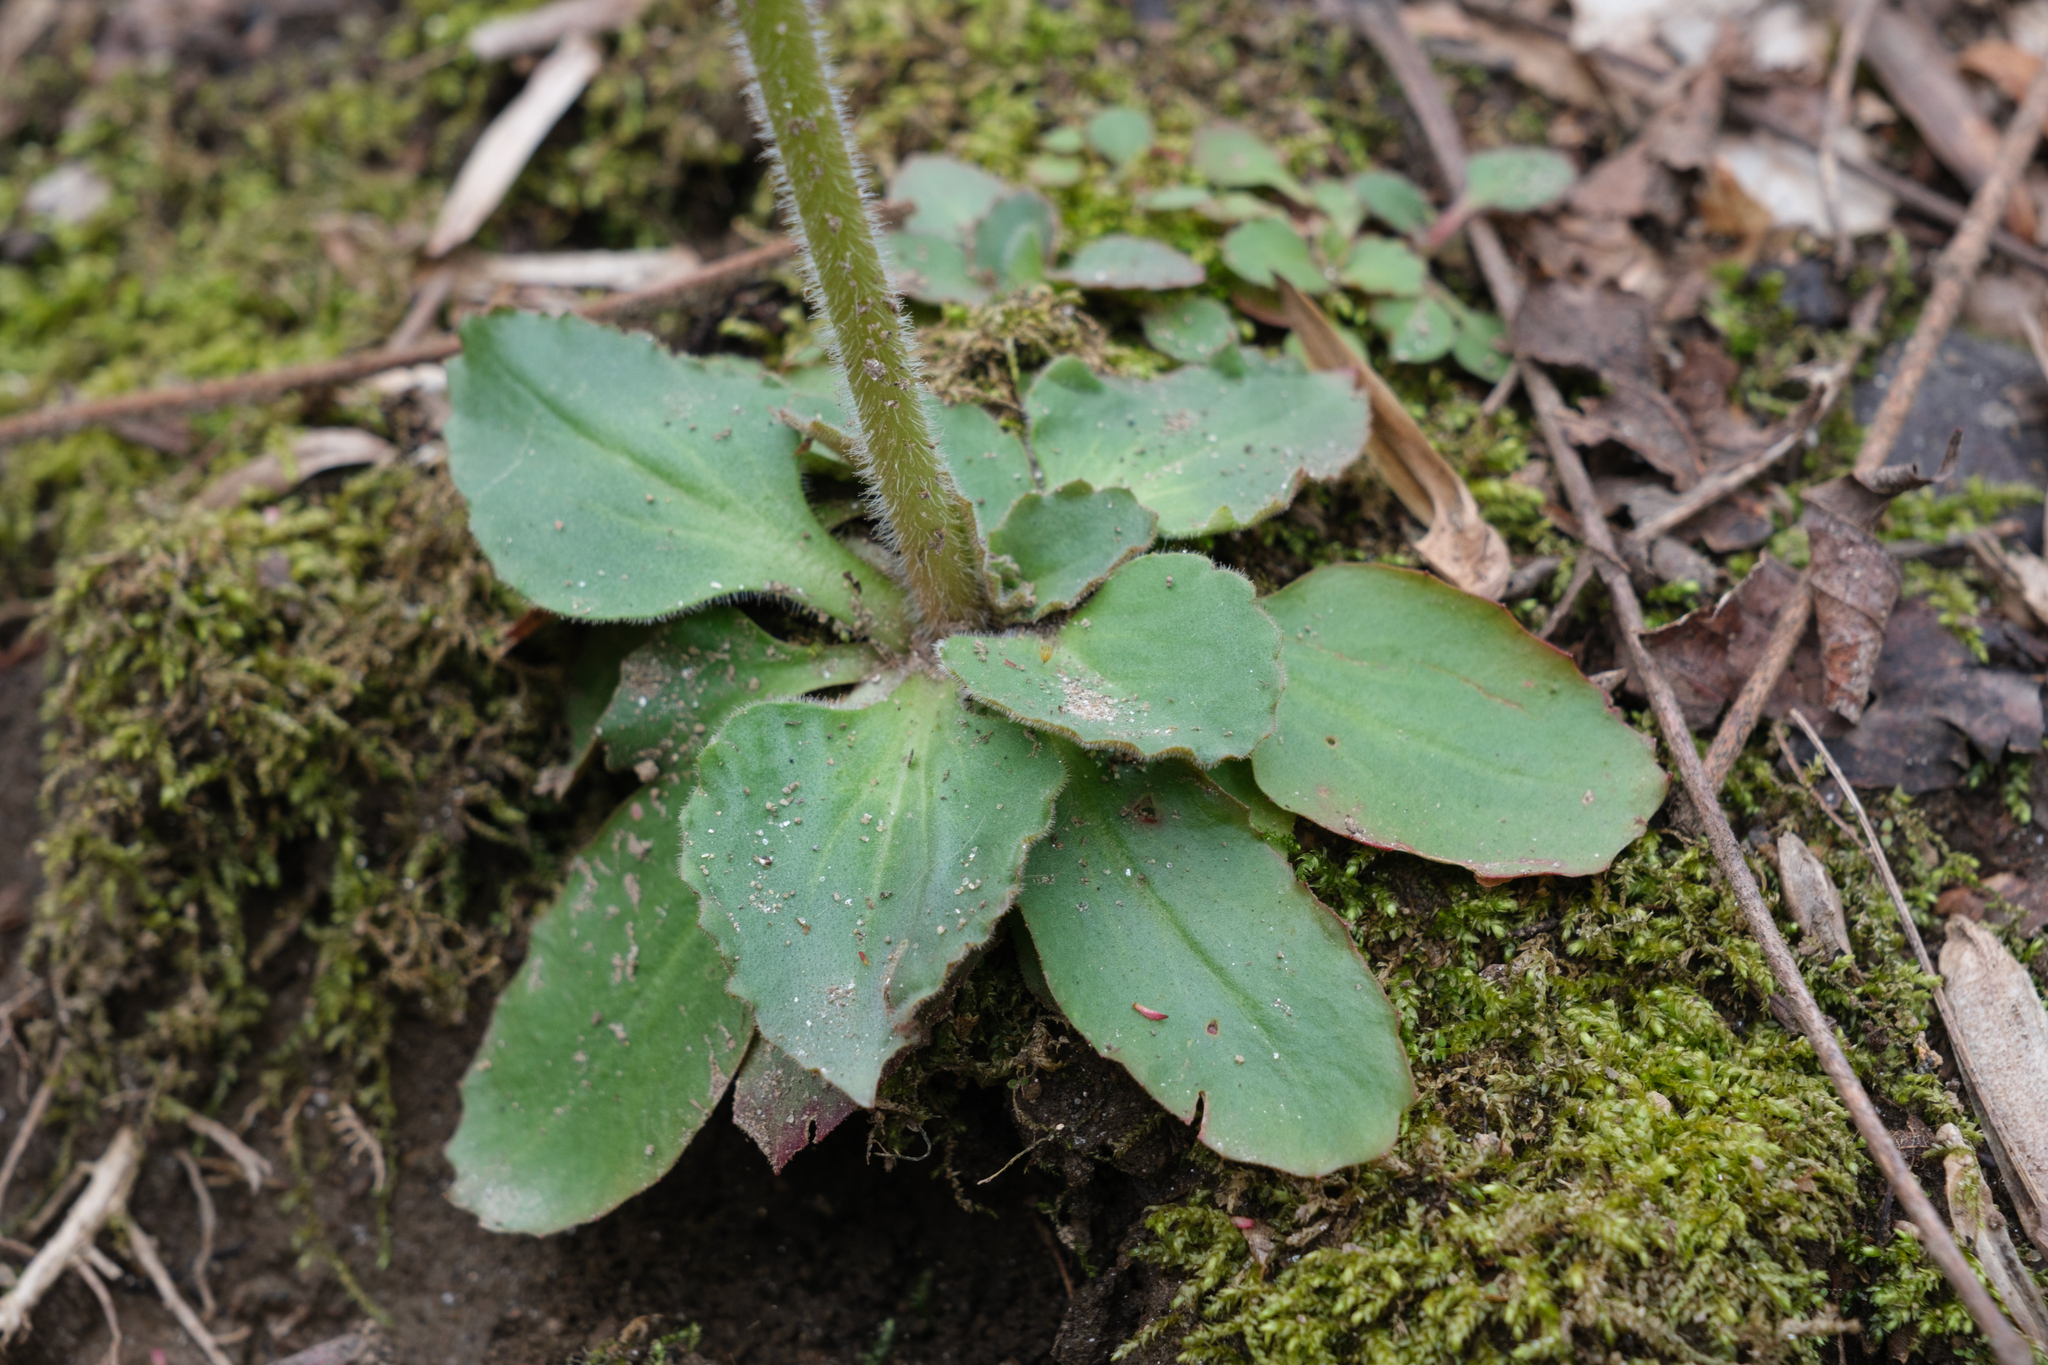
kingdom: Plantae
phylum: Tracheophyta
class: Magnoliopsida
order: Saxifragales
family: Saxifragaceae
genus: Micranthes
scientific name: Micranthes virginiensis
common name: Early saxifrage
